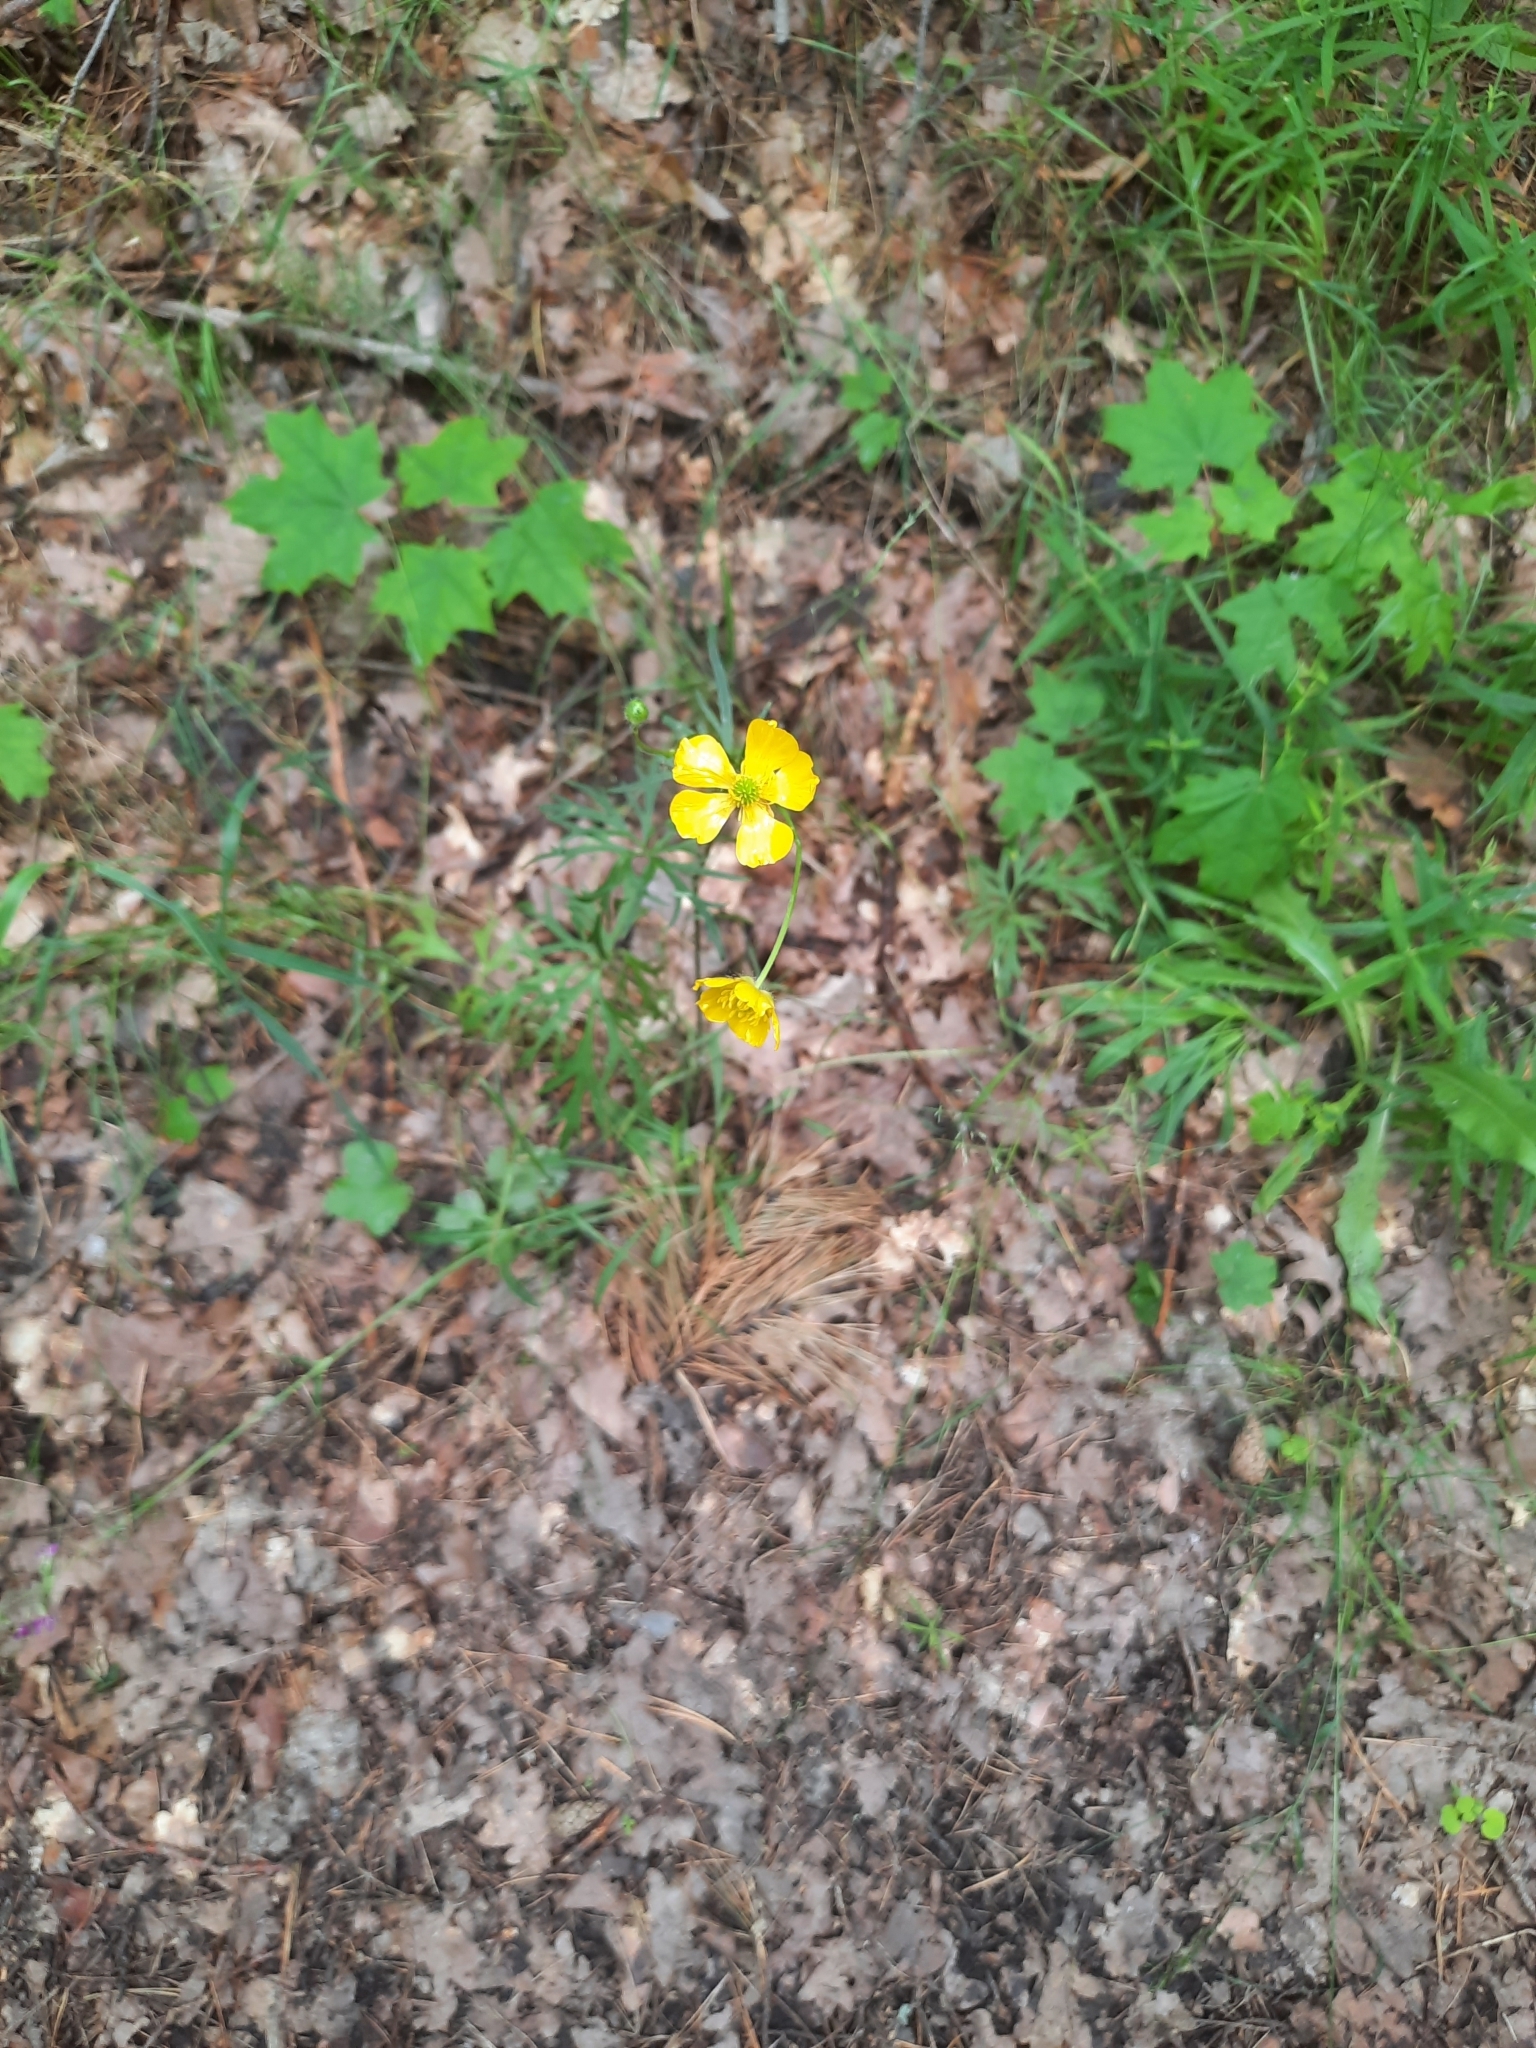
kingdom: Plantae
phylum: Tracheophyta
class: Magnoliopsida
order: Ranunculales
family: Ranunculaceae
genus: Ranunculus
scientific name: Ranunculus polyanthemos
